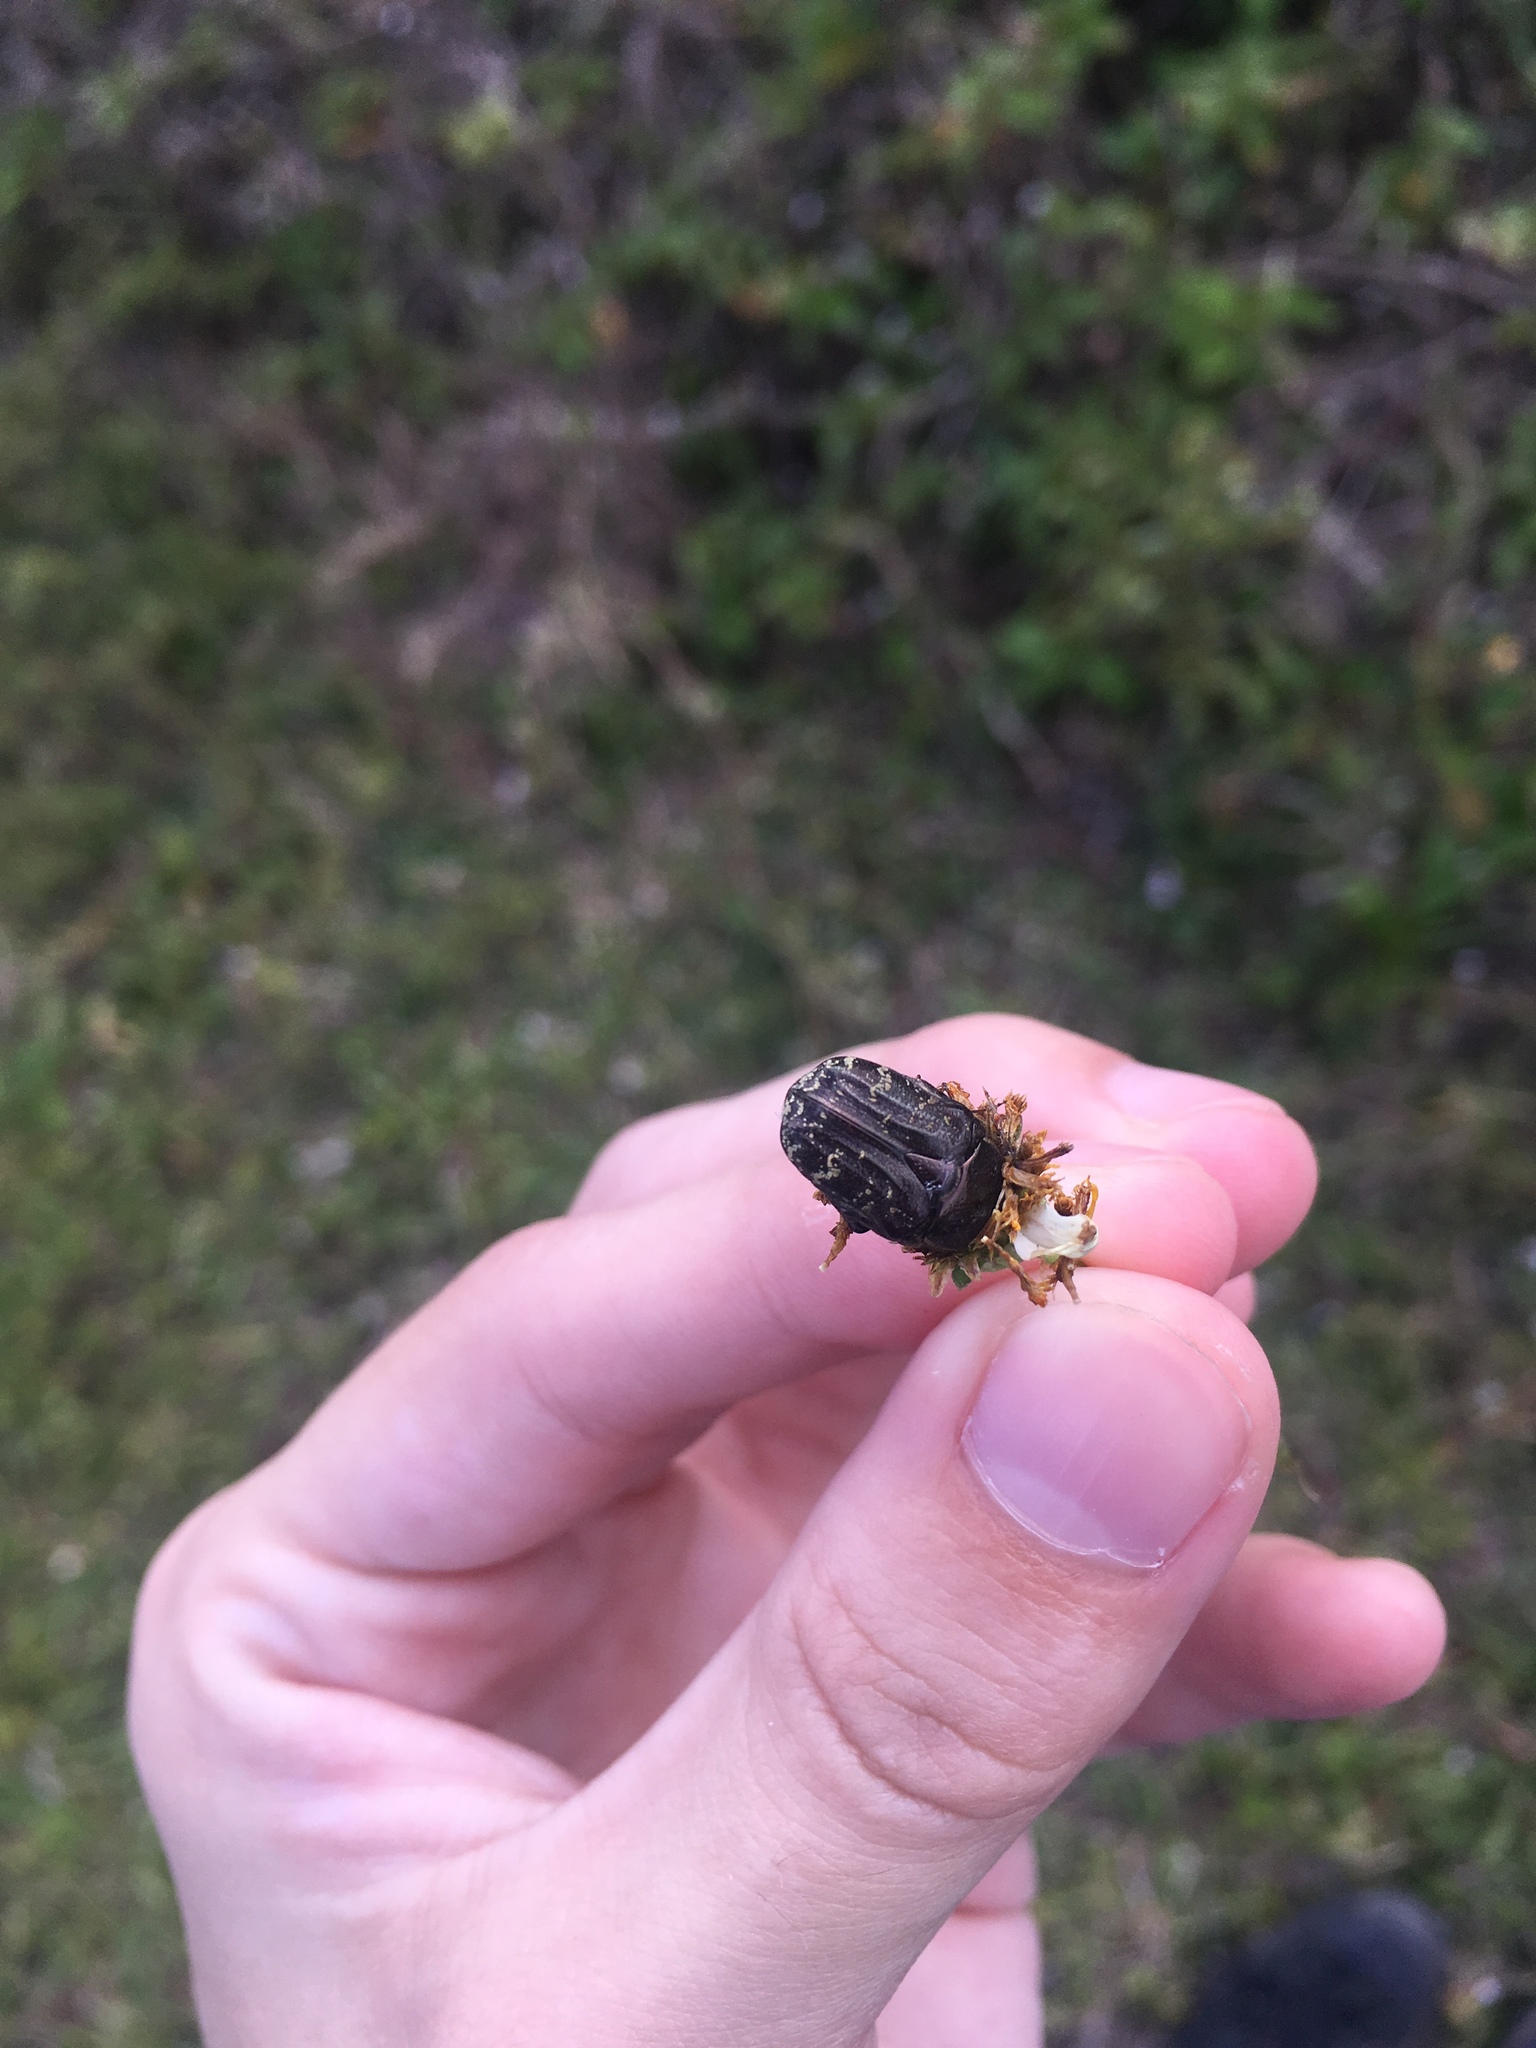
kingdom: Animalia
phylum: Arthropoda
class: Insecta
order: Coleoptera
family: Scarabaeidae
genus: Euphoria
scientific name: Euphoria sepulcralis
